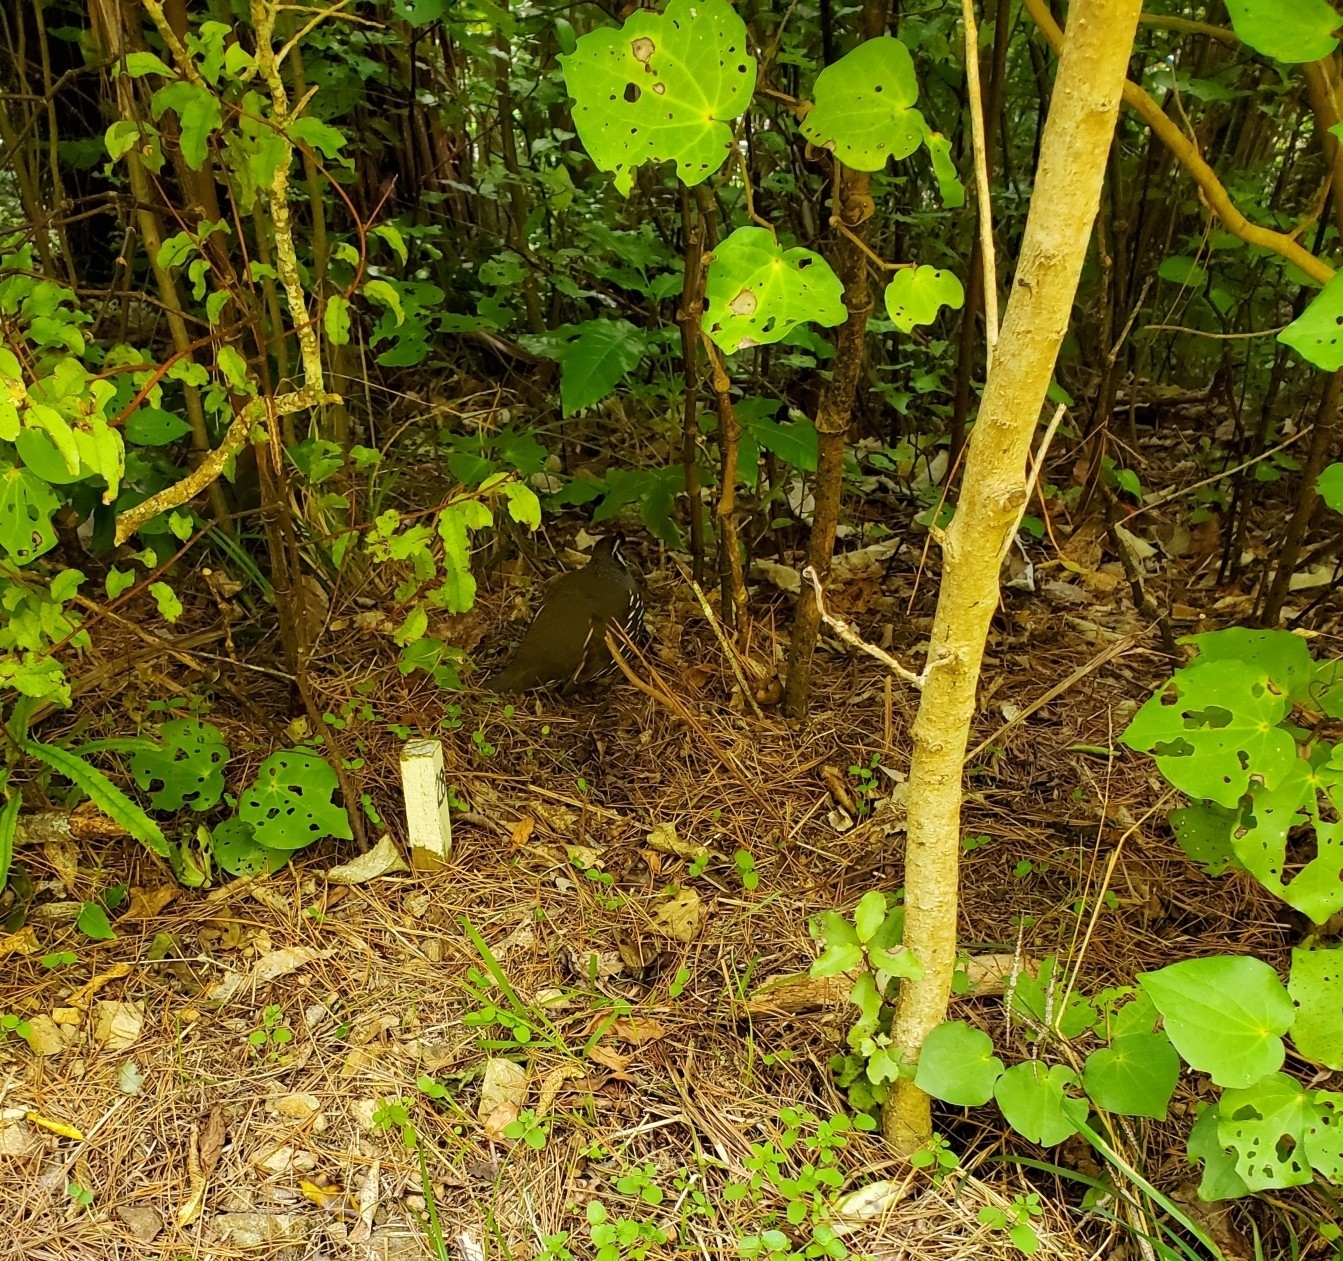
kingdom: Animalia
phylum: Chordata
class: Aves
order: Galliformes
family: Odontophoridae
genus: Callipepla
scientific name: Callipepla californica
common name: California quail
